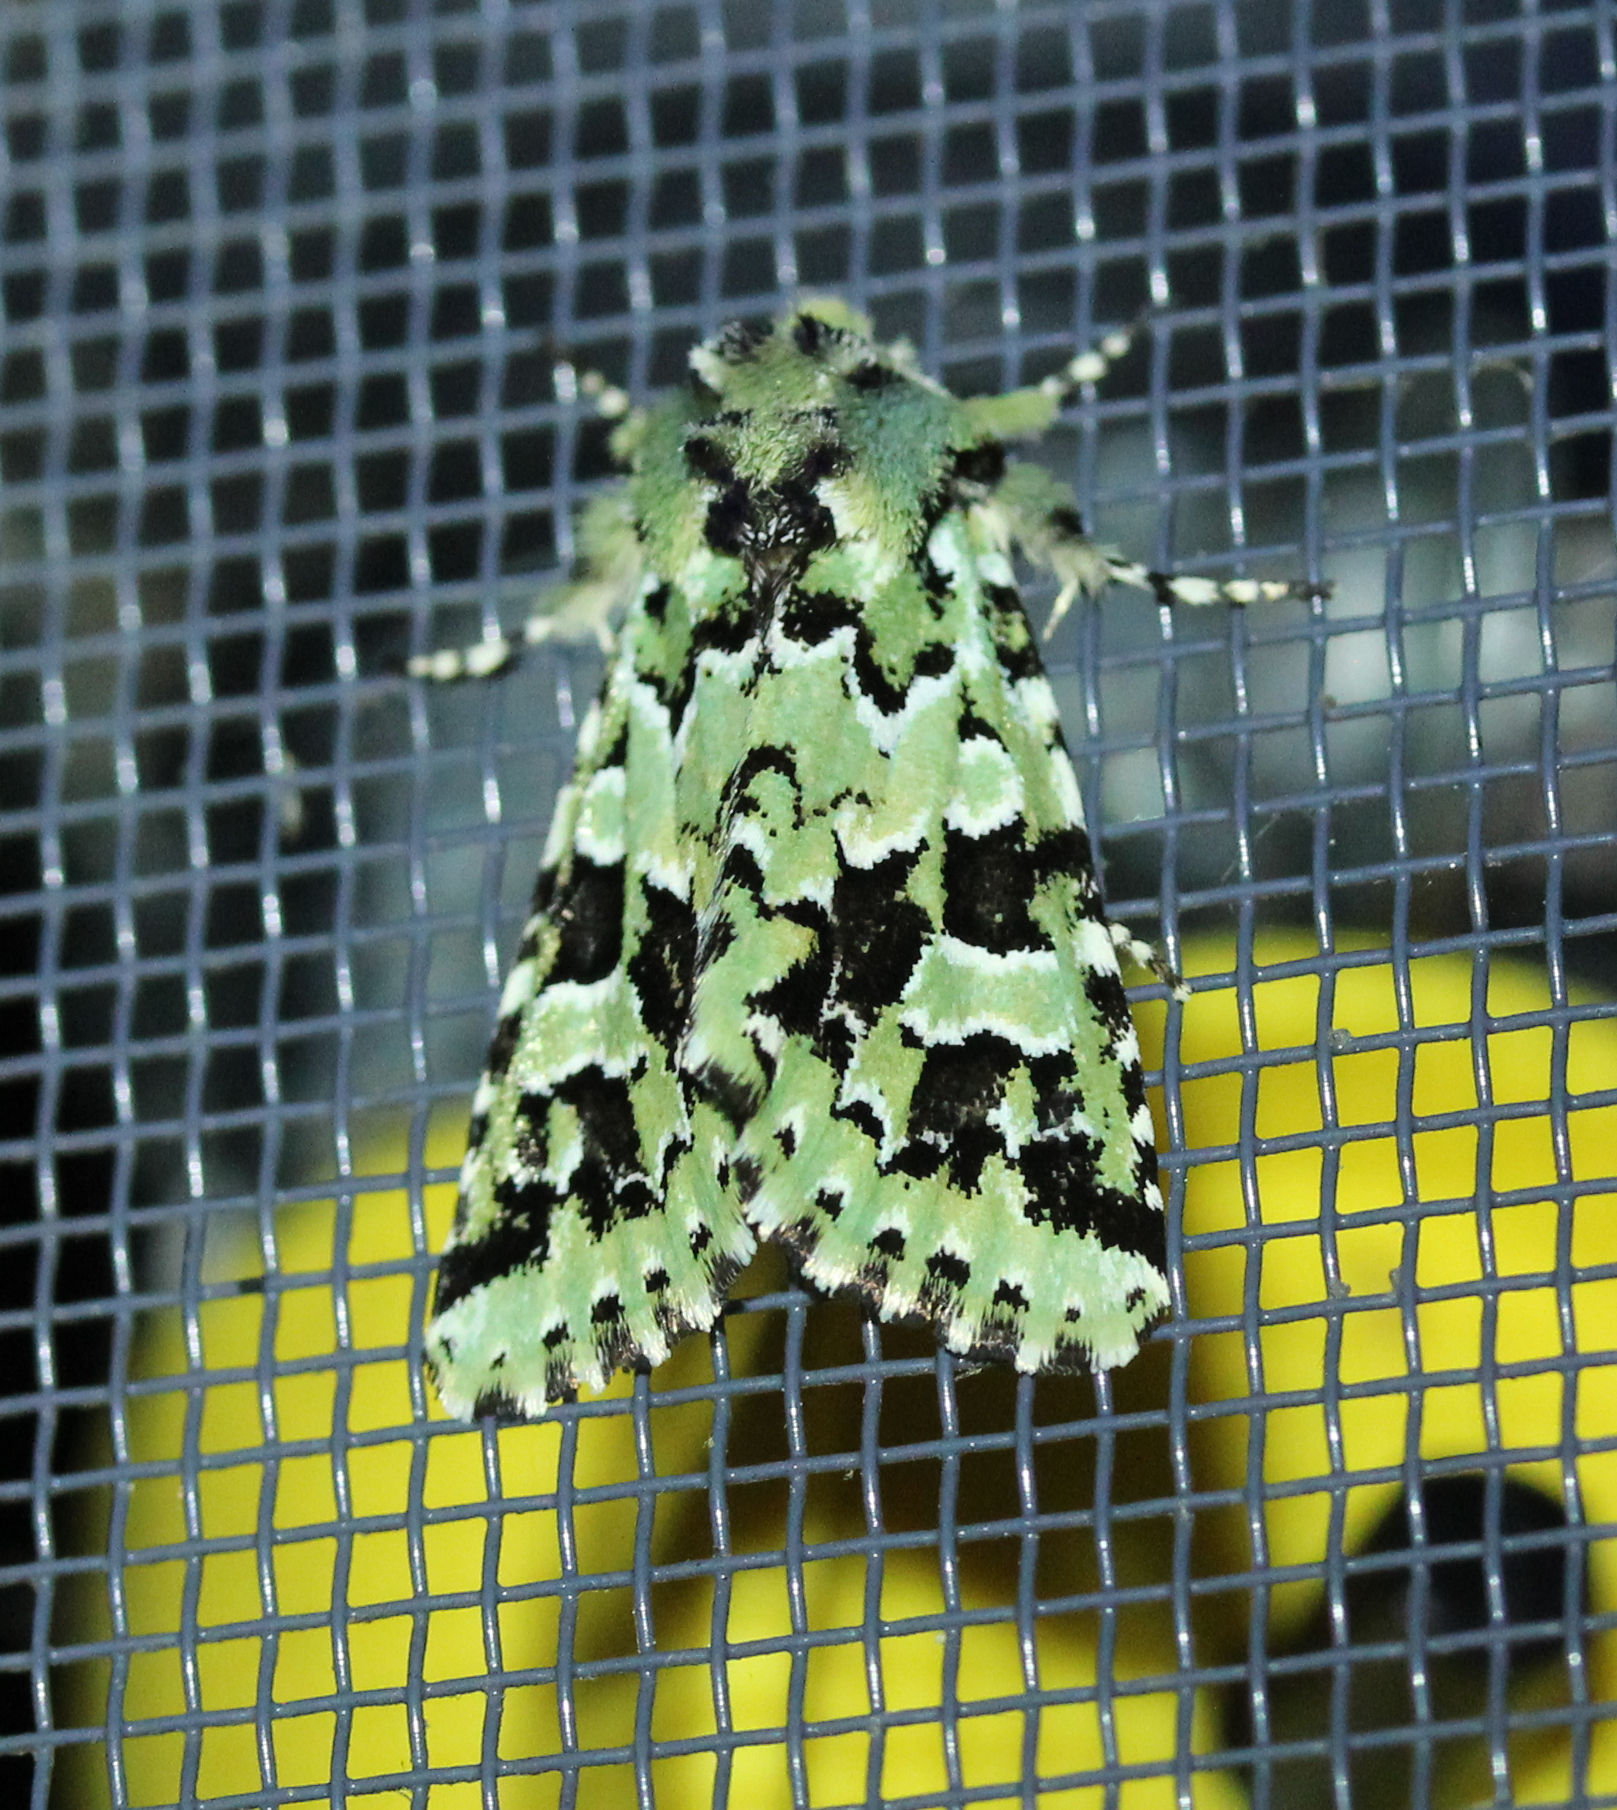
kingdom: Animalia
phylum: Arthropoda
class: Insecta
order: Lepidoptera
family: Noctuidae
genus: Feralia
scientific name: Feralia comstocki
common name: Comstock's sallow
